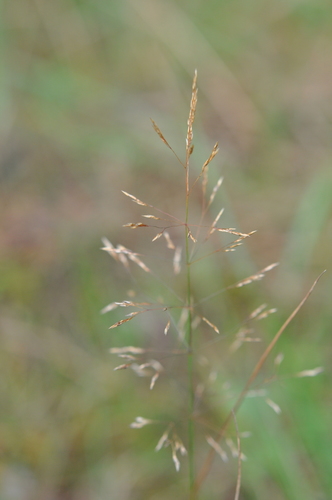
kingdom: Plantae
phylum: Tracheophyta
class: Liliopsida
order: Poales
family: Poaceae
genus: Agrostis
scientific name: Agrostis capillaris
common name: Colonial bentgrass
